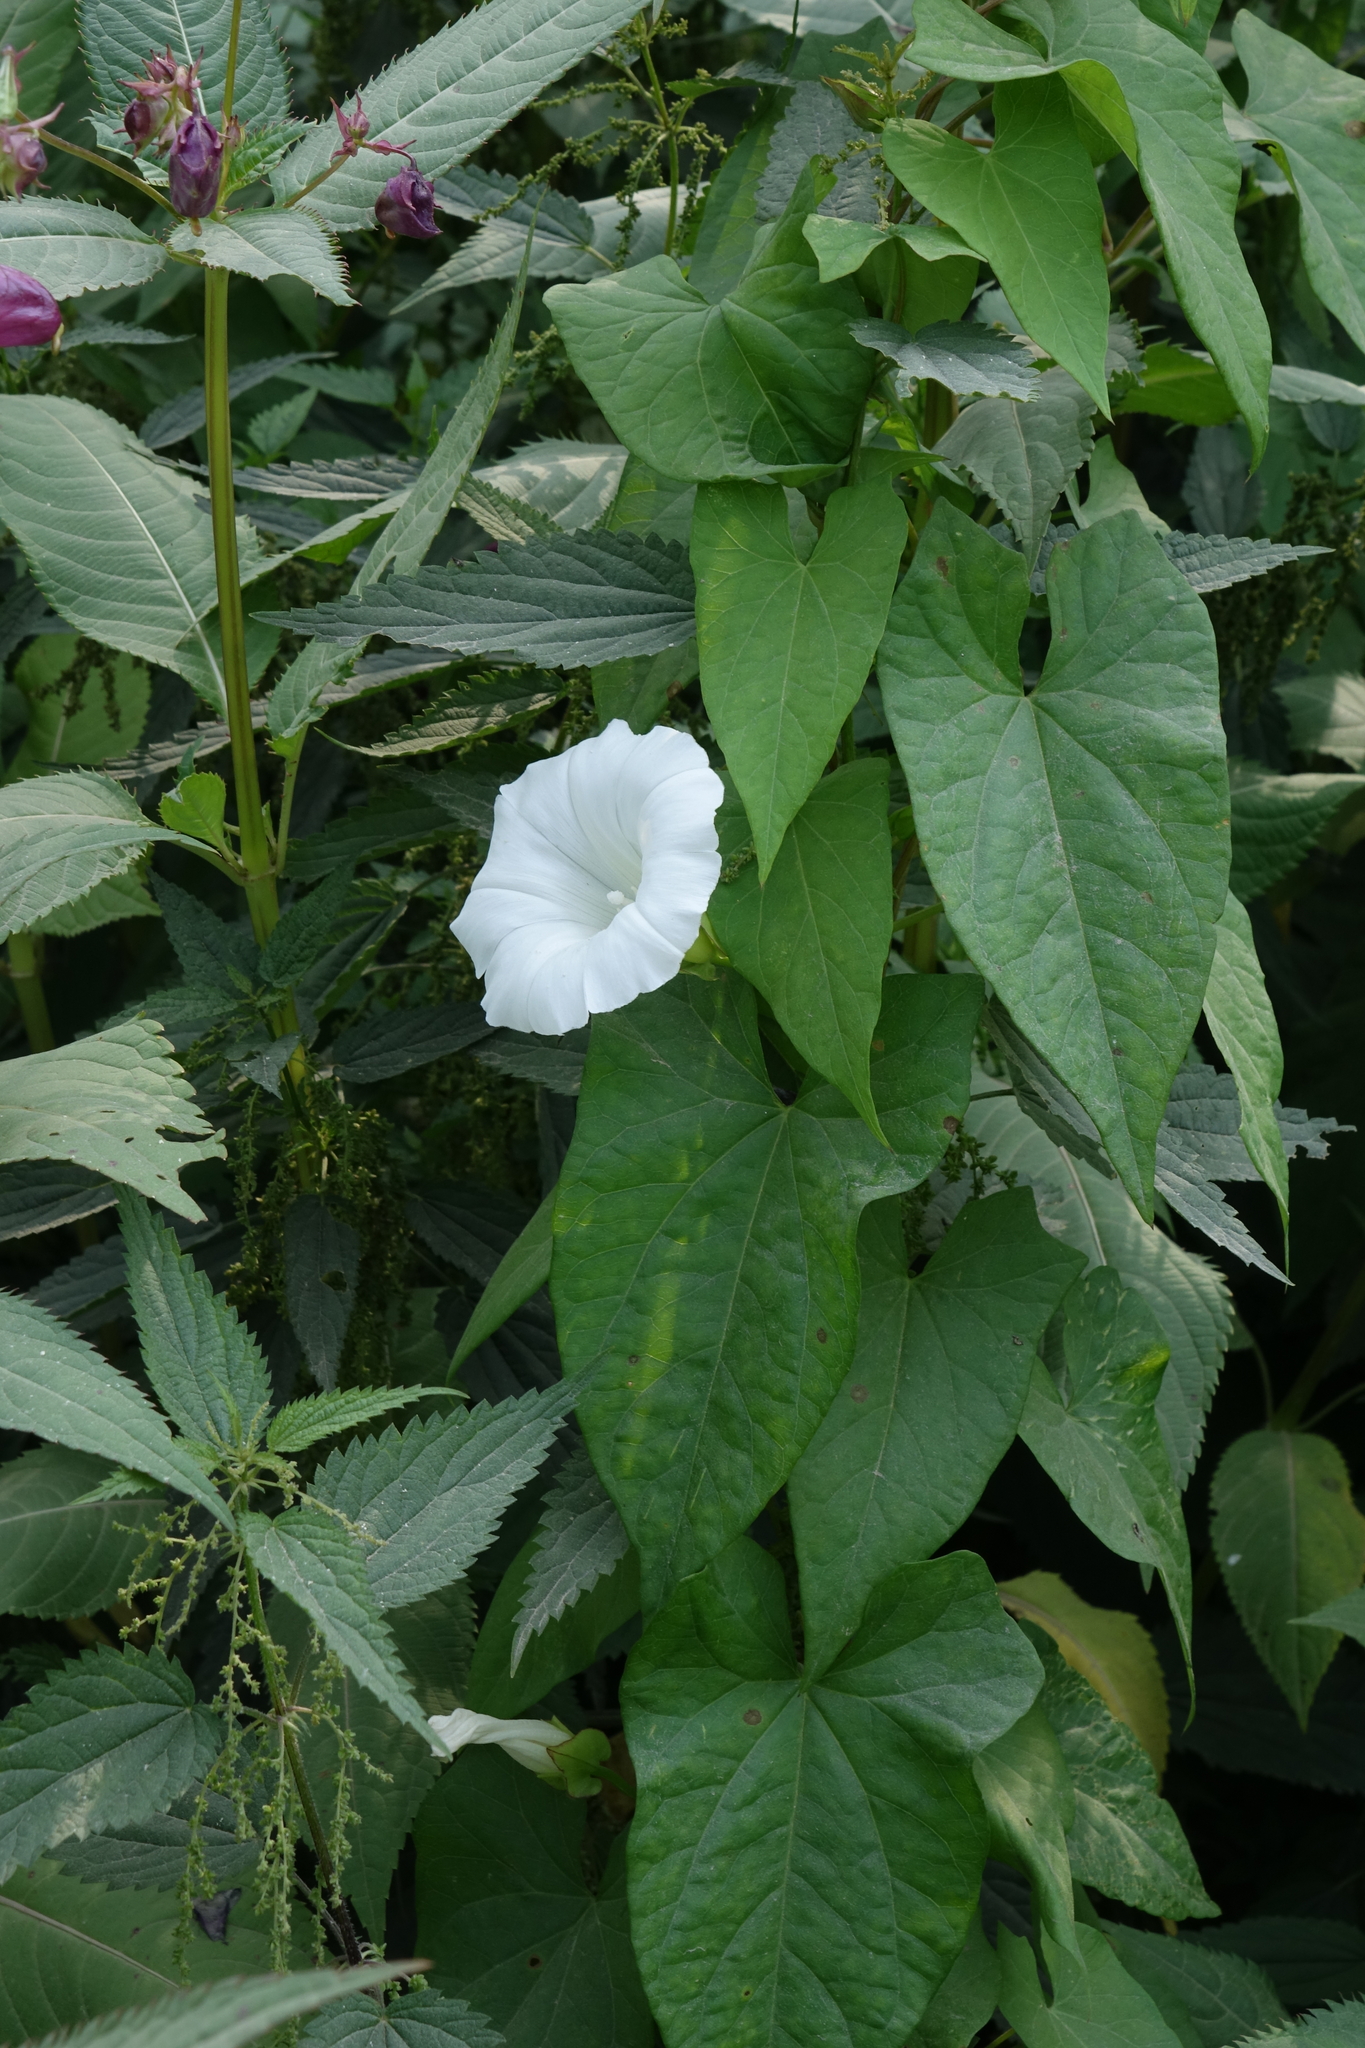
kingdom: Plantae
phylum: Tracheophyta
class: Magnoliopsida
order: Solanales
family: Convolvulaceae
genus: Calystegia
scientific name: Calystegia sepium
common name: Hedge bindweed
